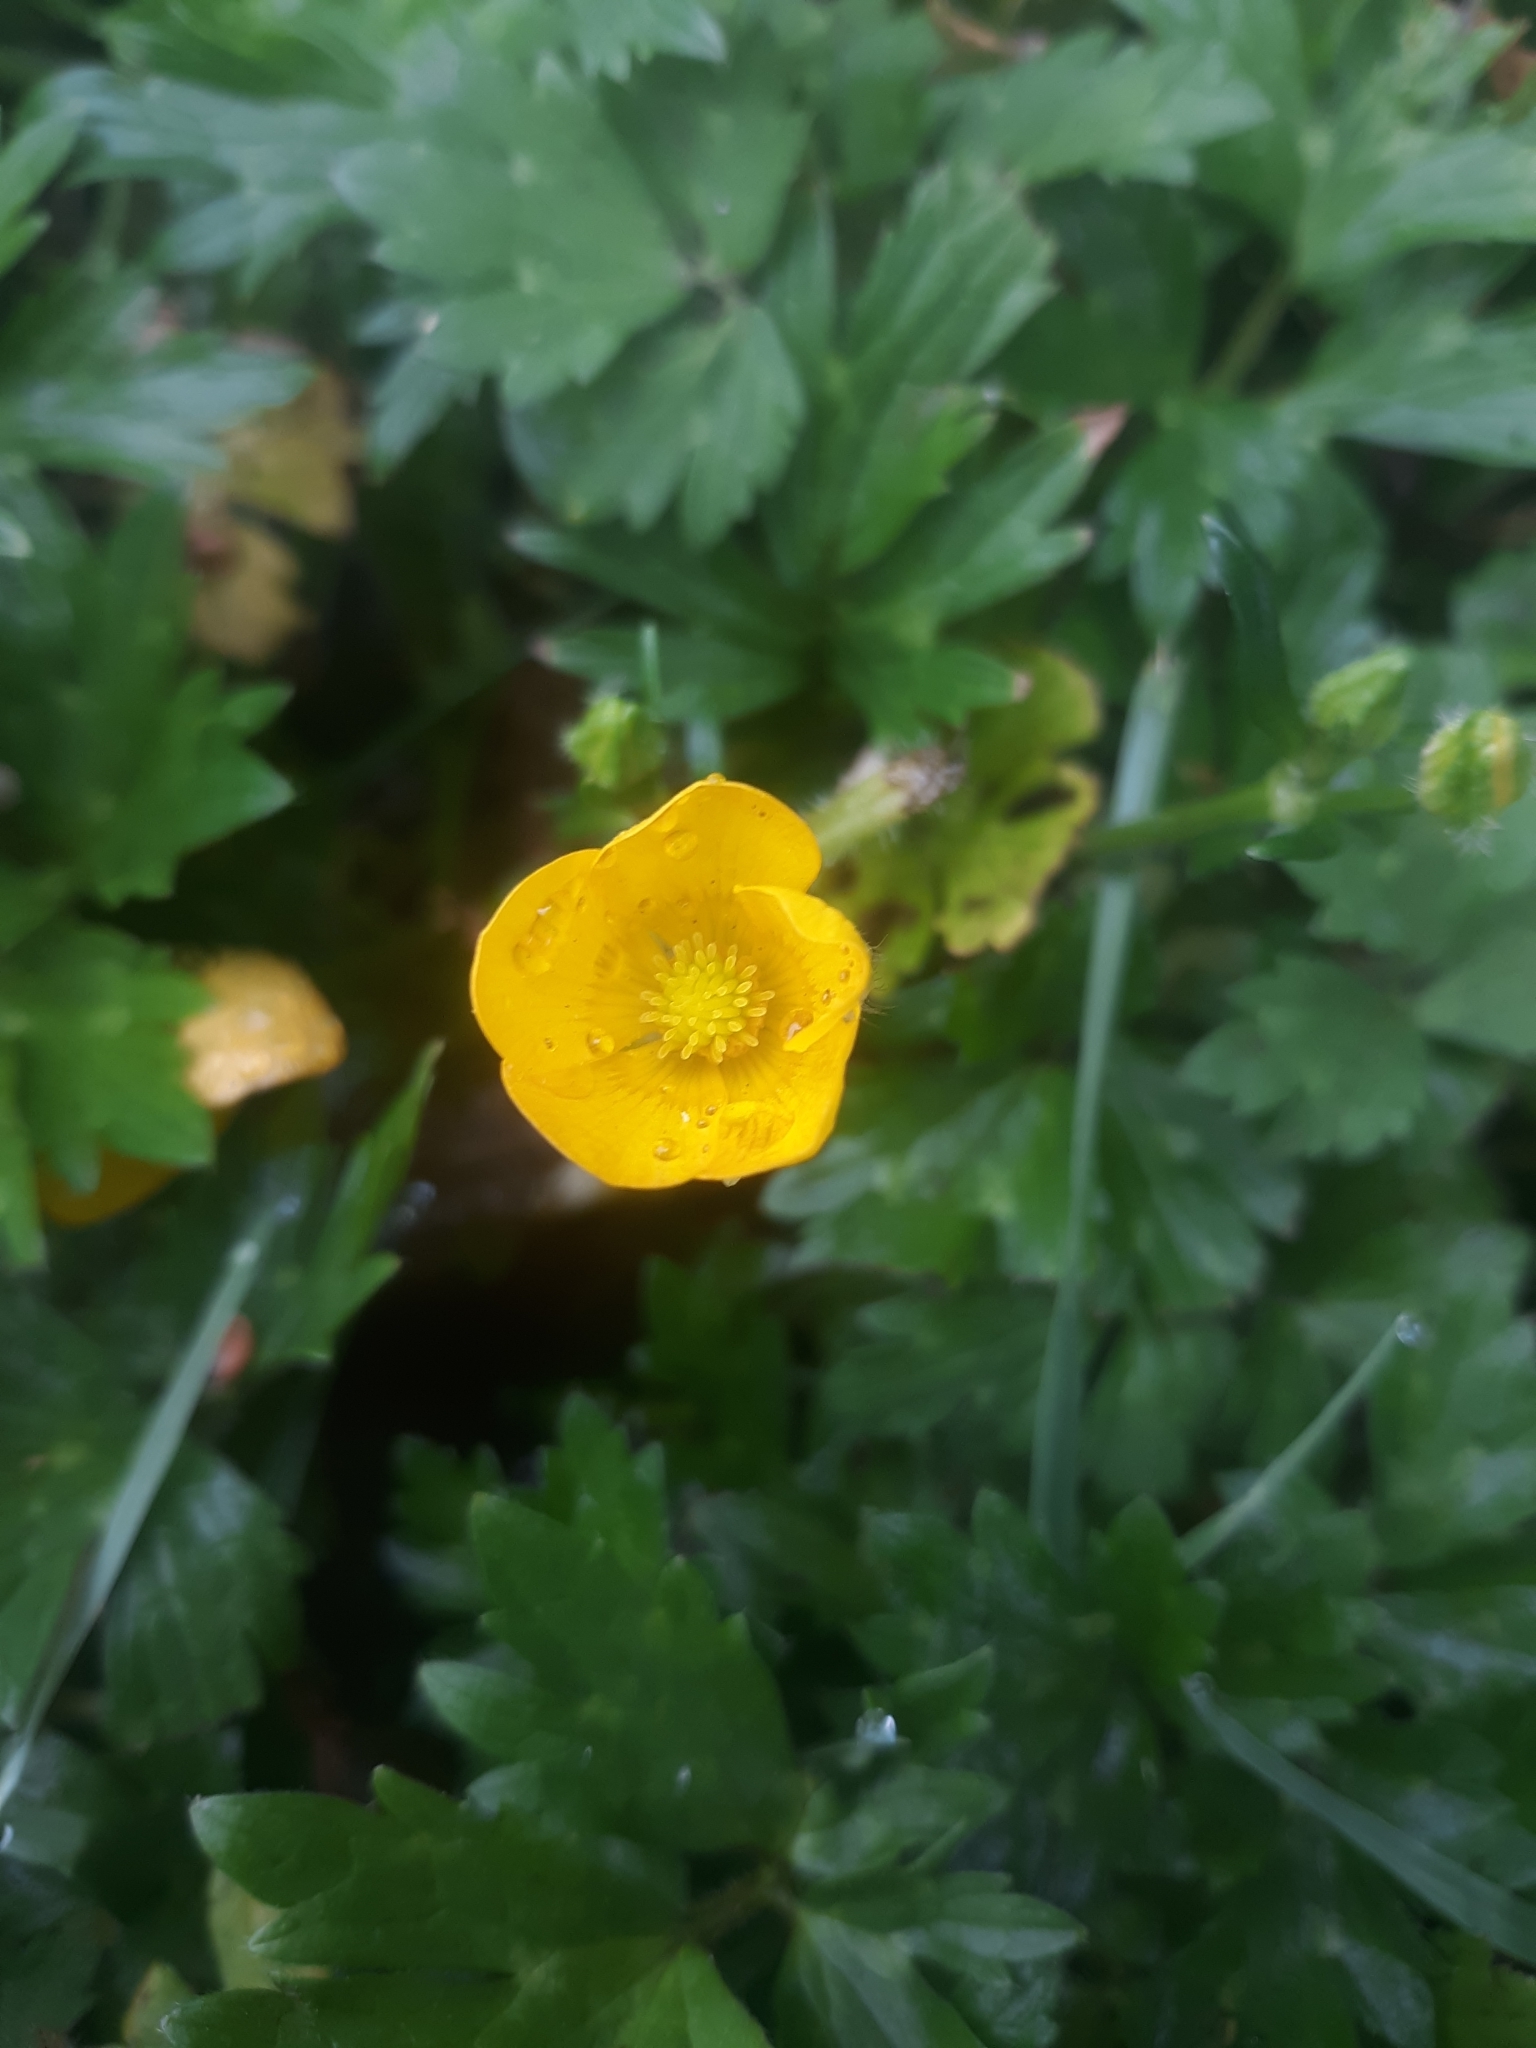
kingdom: Plantae
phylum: Tracheophyta
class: Magnoliopsida
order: Ranunculales
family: Ranunculaceae
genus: Ranunculus
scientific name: Ranunculus repens
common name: Creeping buttercup
